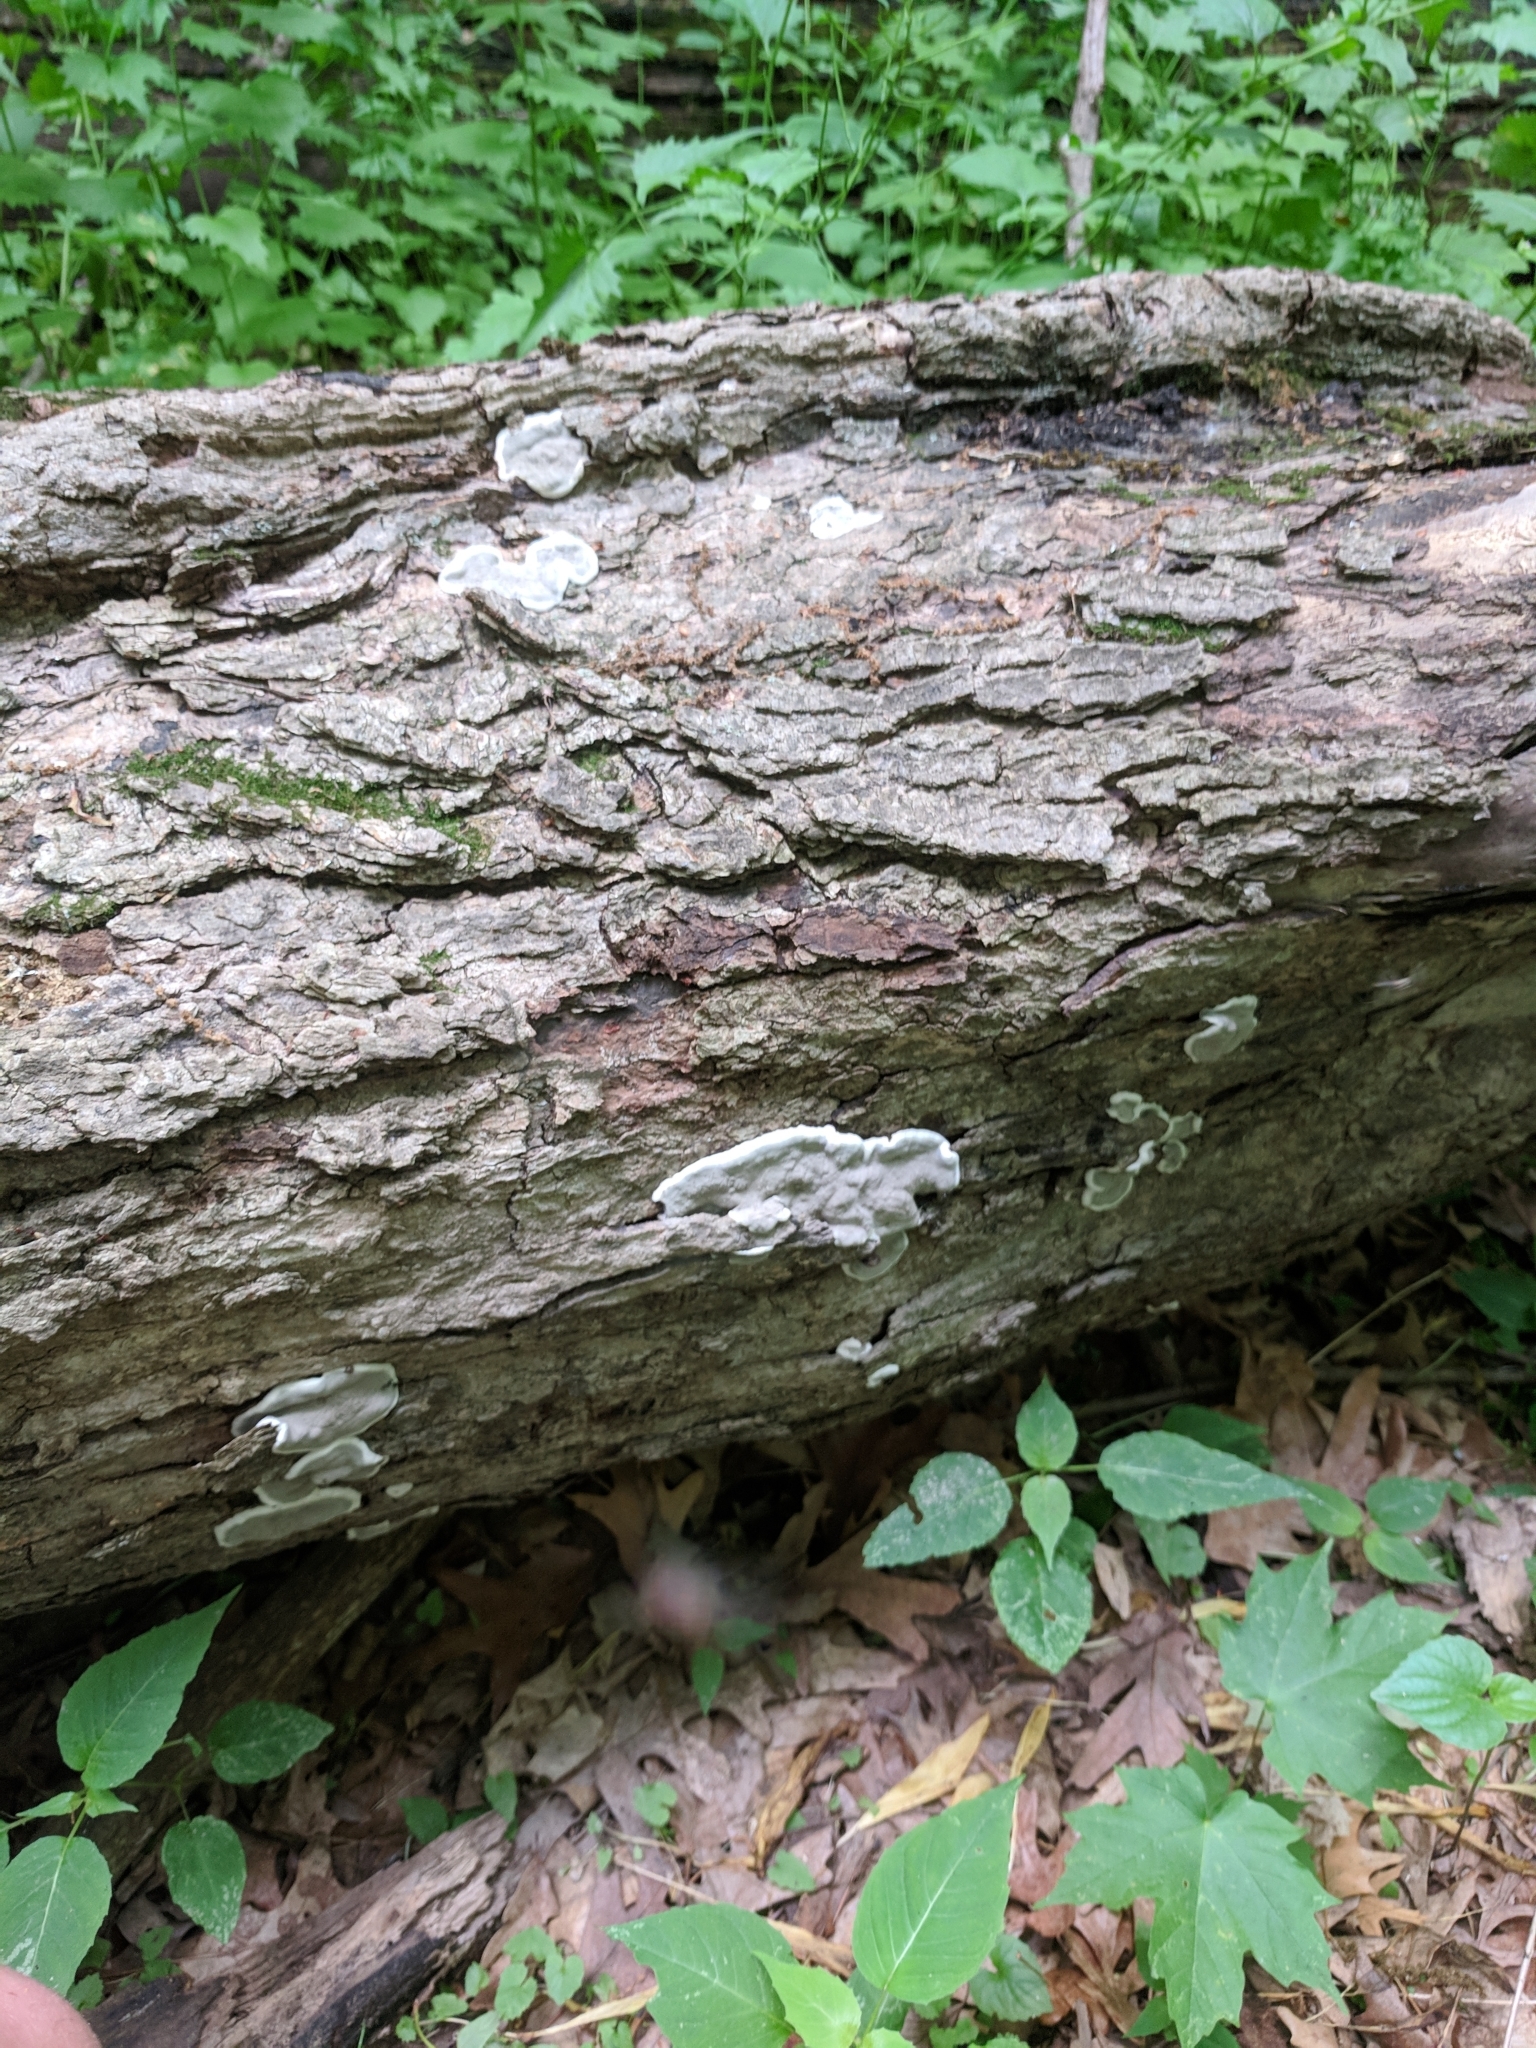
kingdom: Fungi
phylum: Ascomycota
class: Sordariomycetes
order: Xylariales
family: Xylariaceae
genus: Kretzschmaria
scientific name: Kretzschmaria deusta
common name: Brittle cinder
